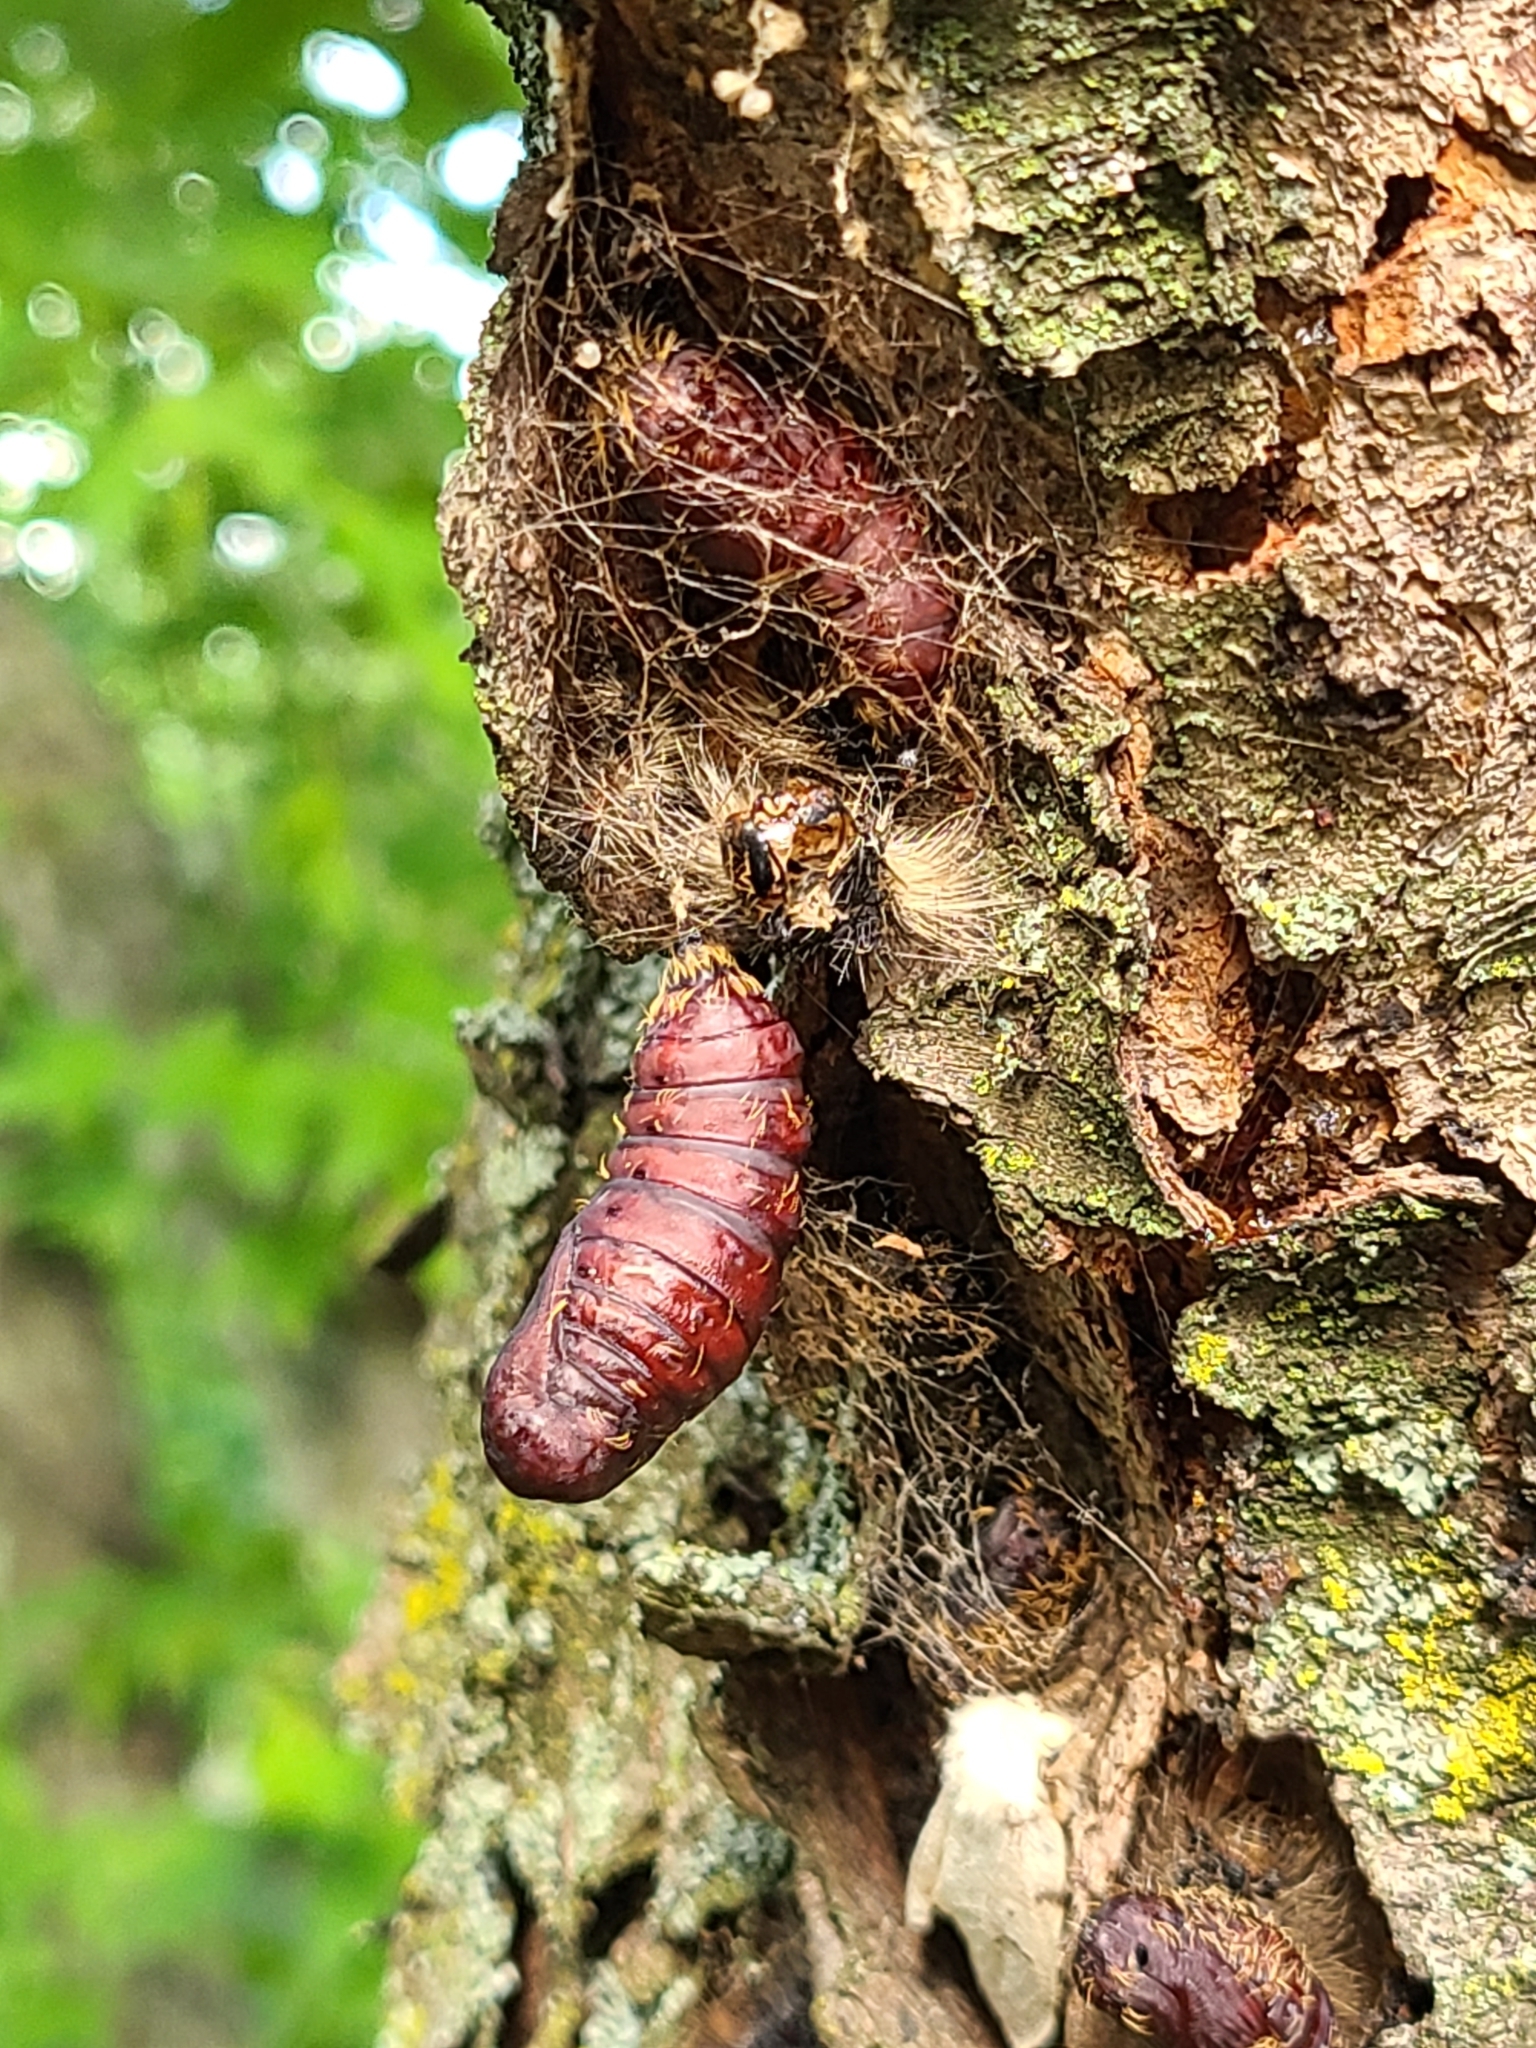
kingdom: Animalia
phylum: Arthropoda
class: Insecta
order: Lepidoptera
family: Erebidae
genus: Lymantria
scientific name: Lymantria dispar
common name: Gypsy moth
